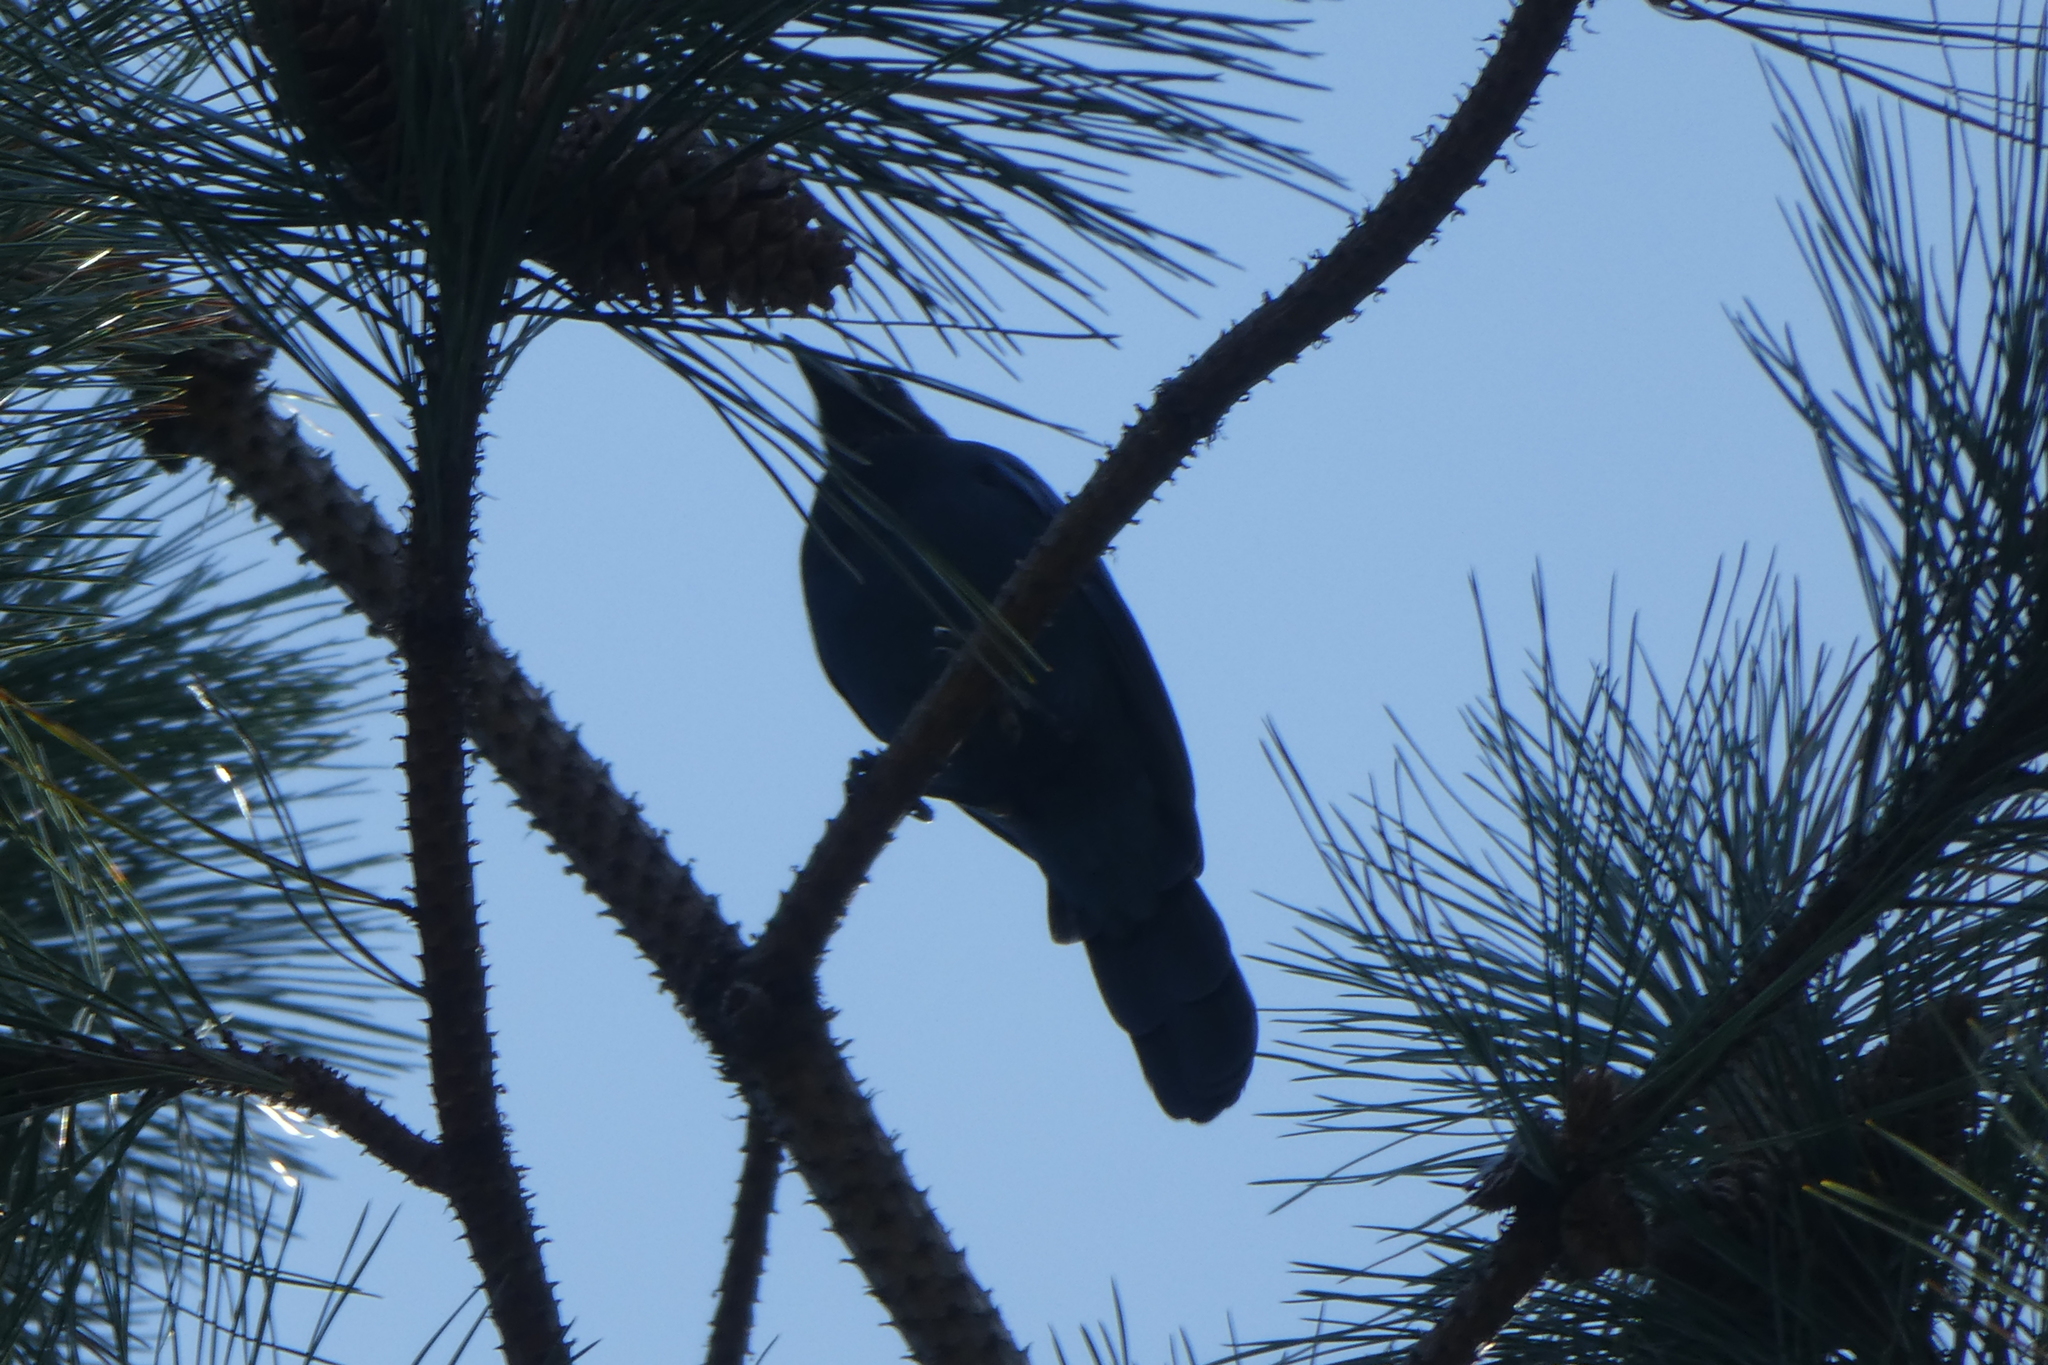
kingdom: Animalia
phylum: Chordata
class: Aves
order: Passeriformes
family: Corvidae
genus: Cyanocitta
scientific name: Cyanocitta stelleri
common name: Steller's jay
